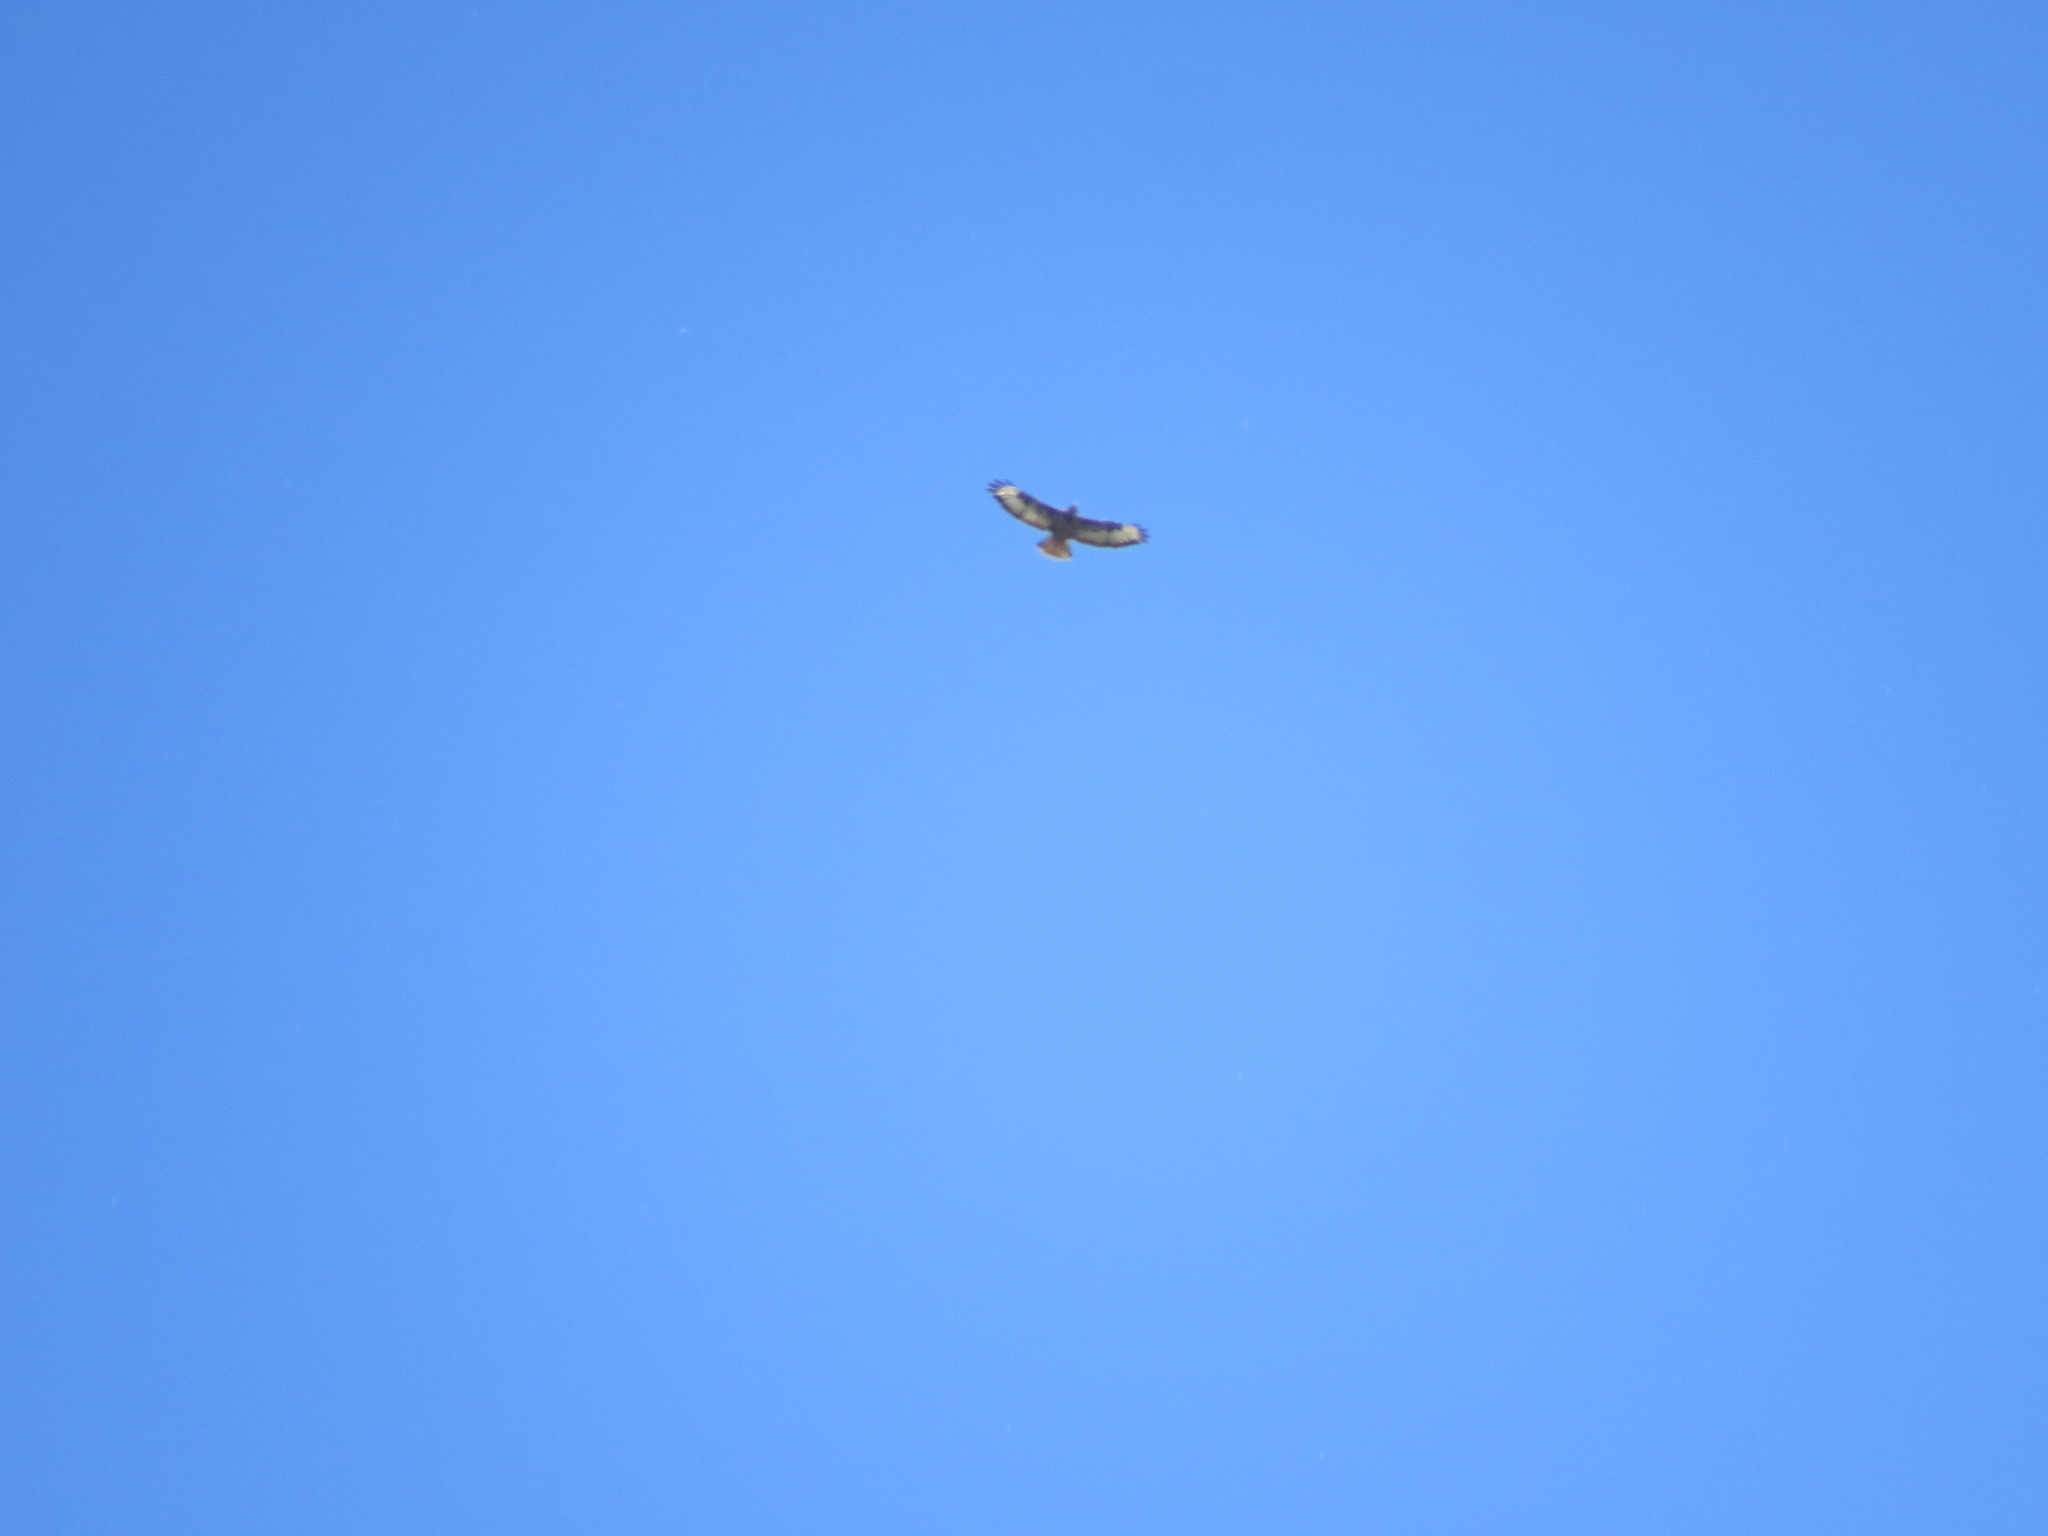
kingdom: Animalia
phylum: Chordata
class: Aves
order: Accipitriformes
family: Accipitridae
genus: Buteo
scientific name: Buteo buteo
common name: Common buzzard
